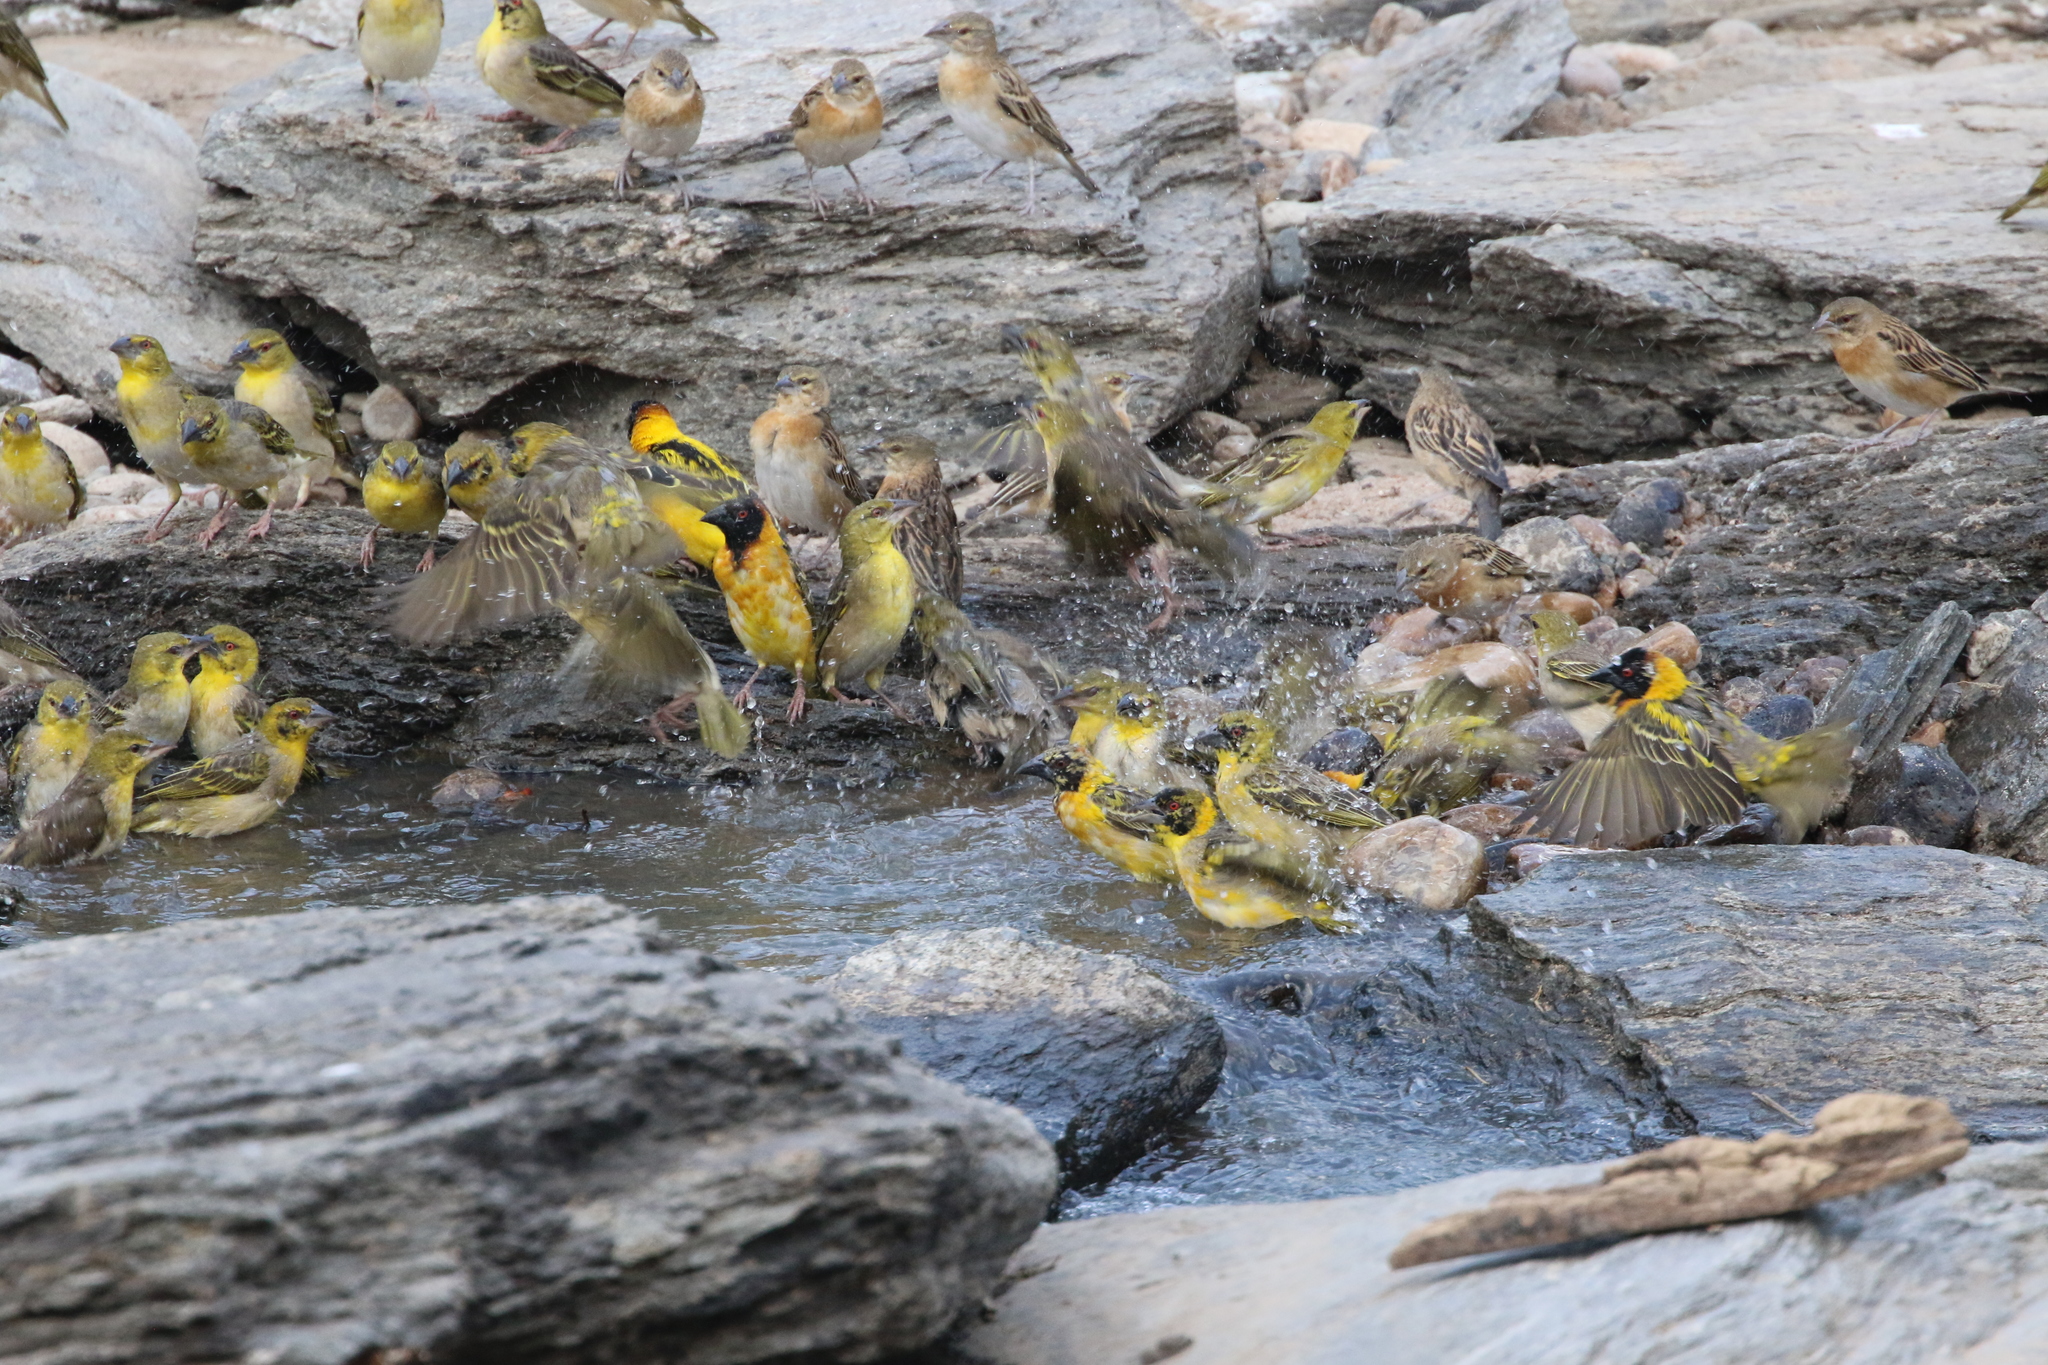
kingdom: Animalia
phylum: Chordata
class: Aves
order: Passeriformes
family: Ploceidae
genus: Ploceus
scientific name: Ploceus cucullatus
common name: Village weaver
